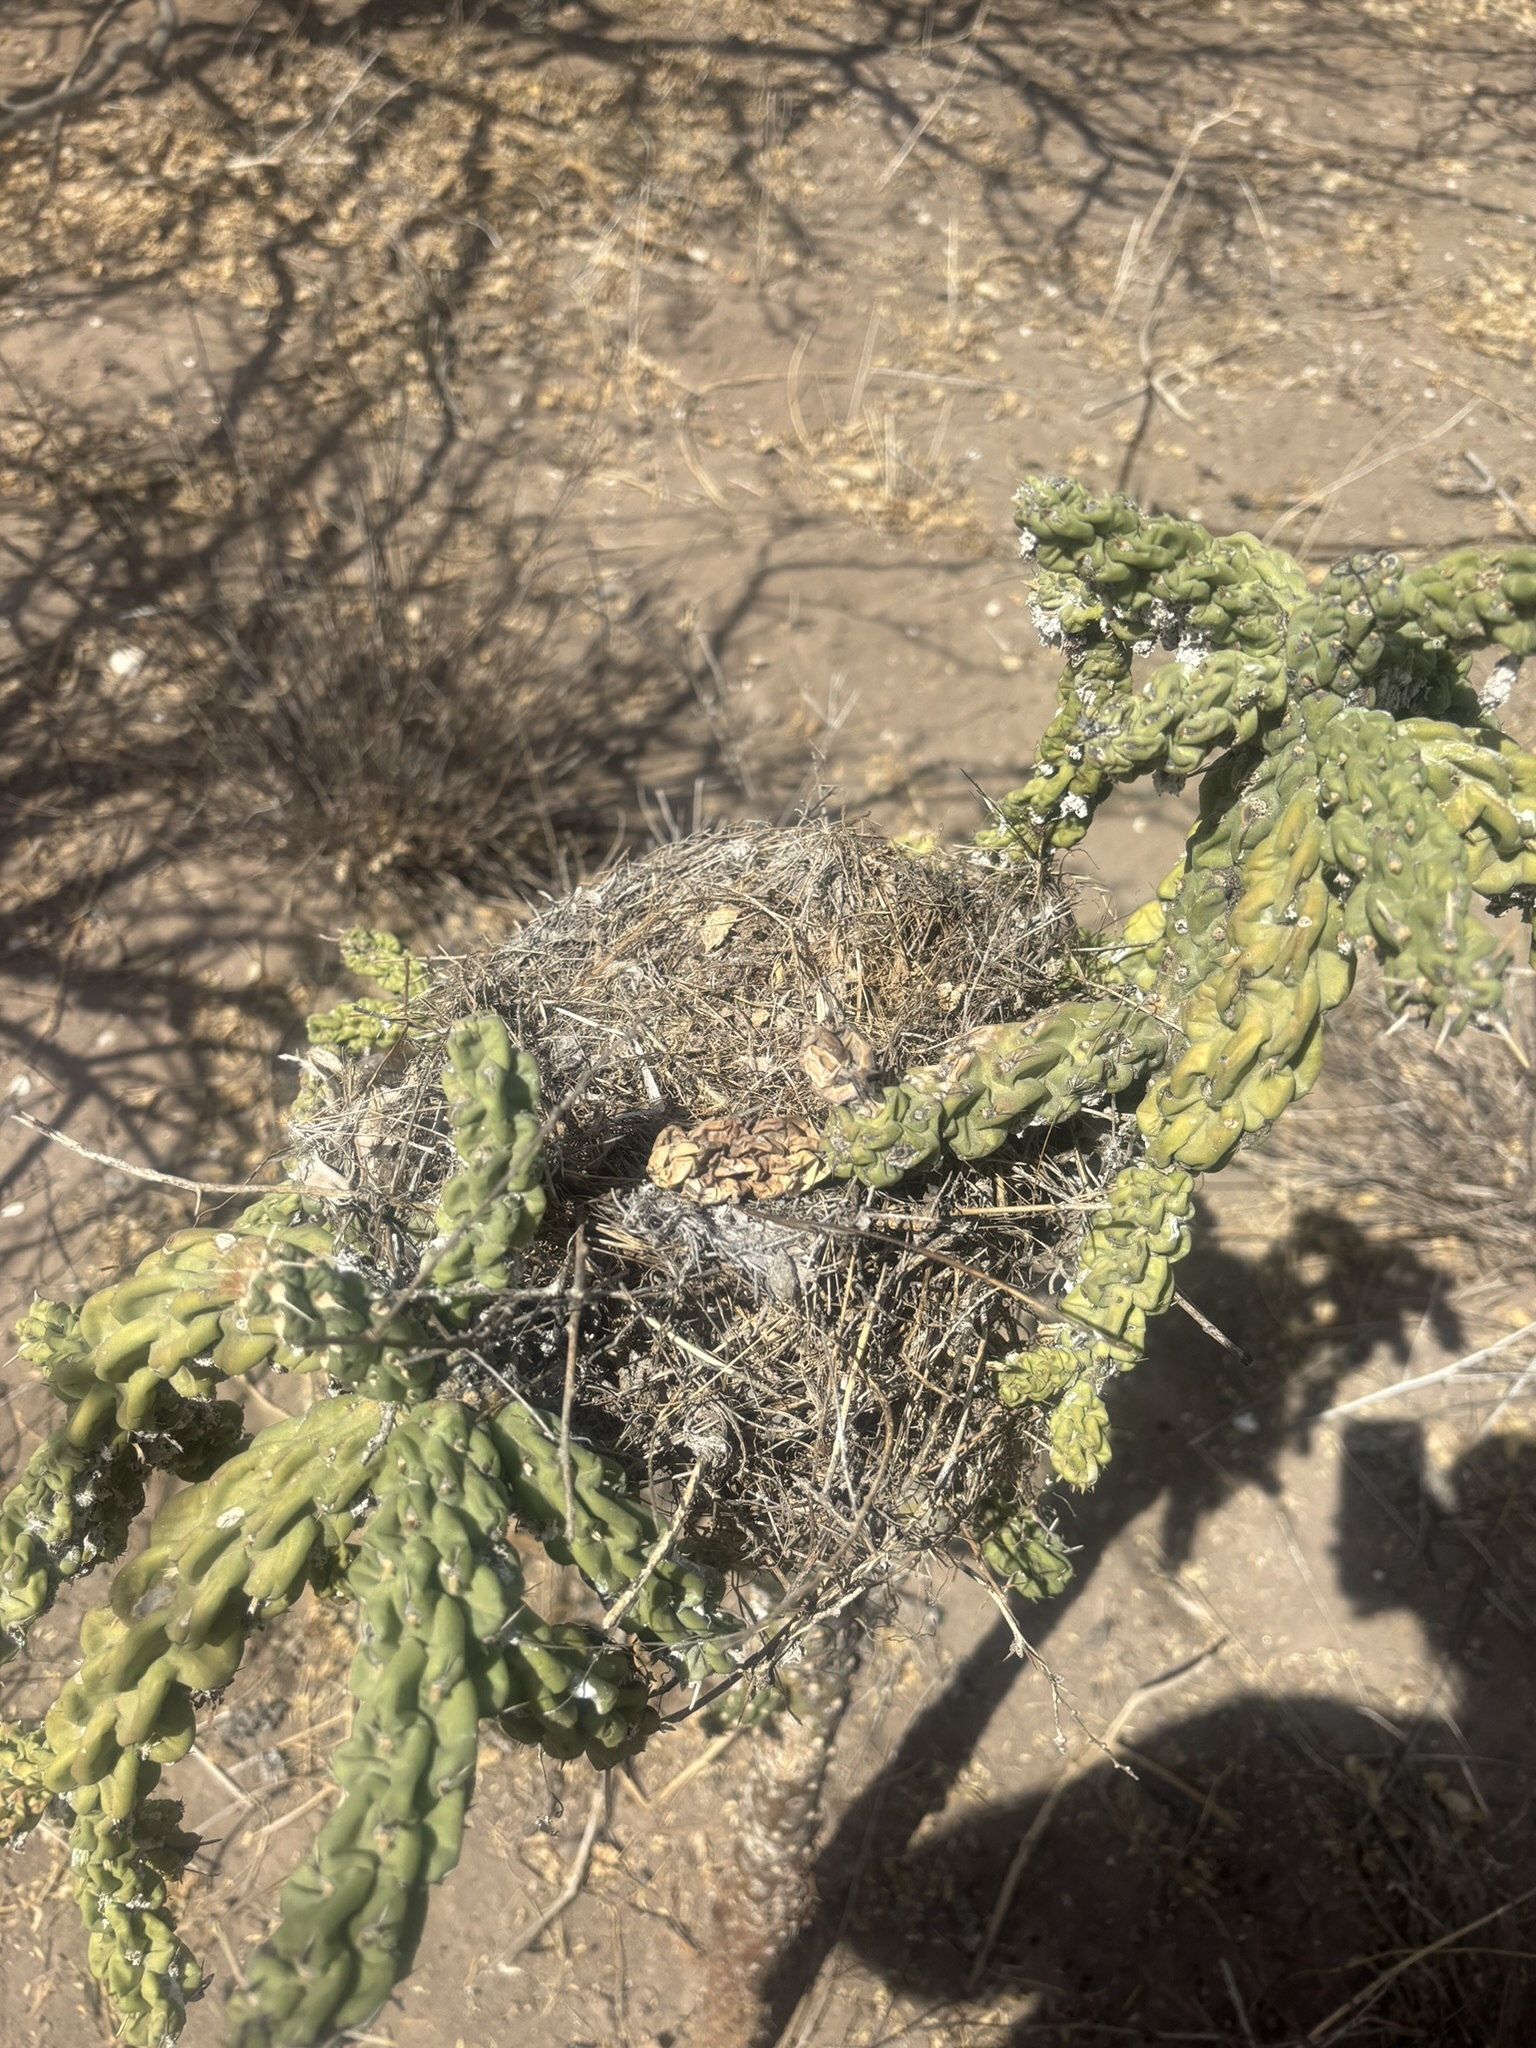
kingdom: Plantae
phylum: Tracheophyta
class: Magnoliopsida
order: Caryophyllales
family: Cactaceae
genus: Cylindropuntia
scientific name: Cylindropuntia cholla
